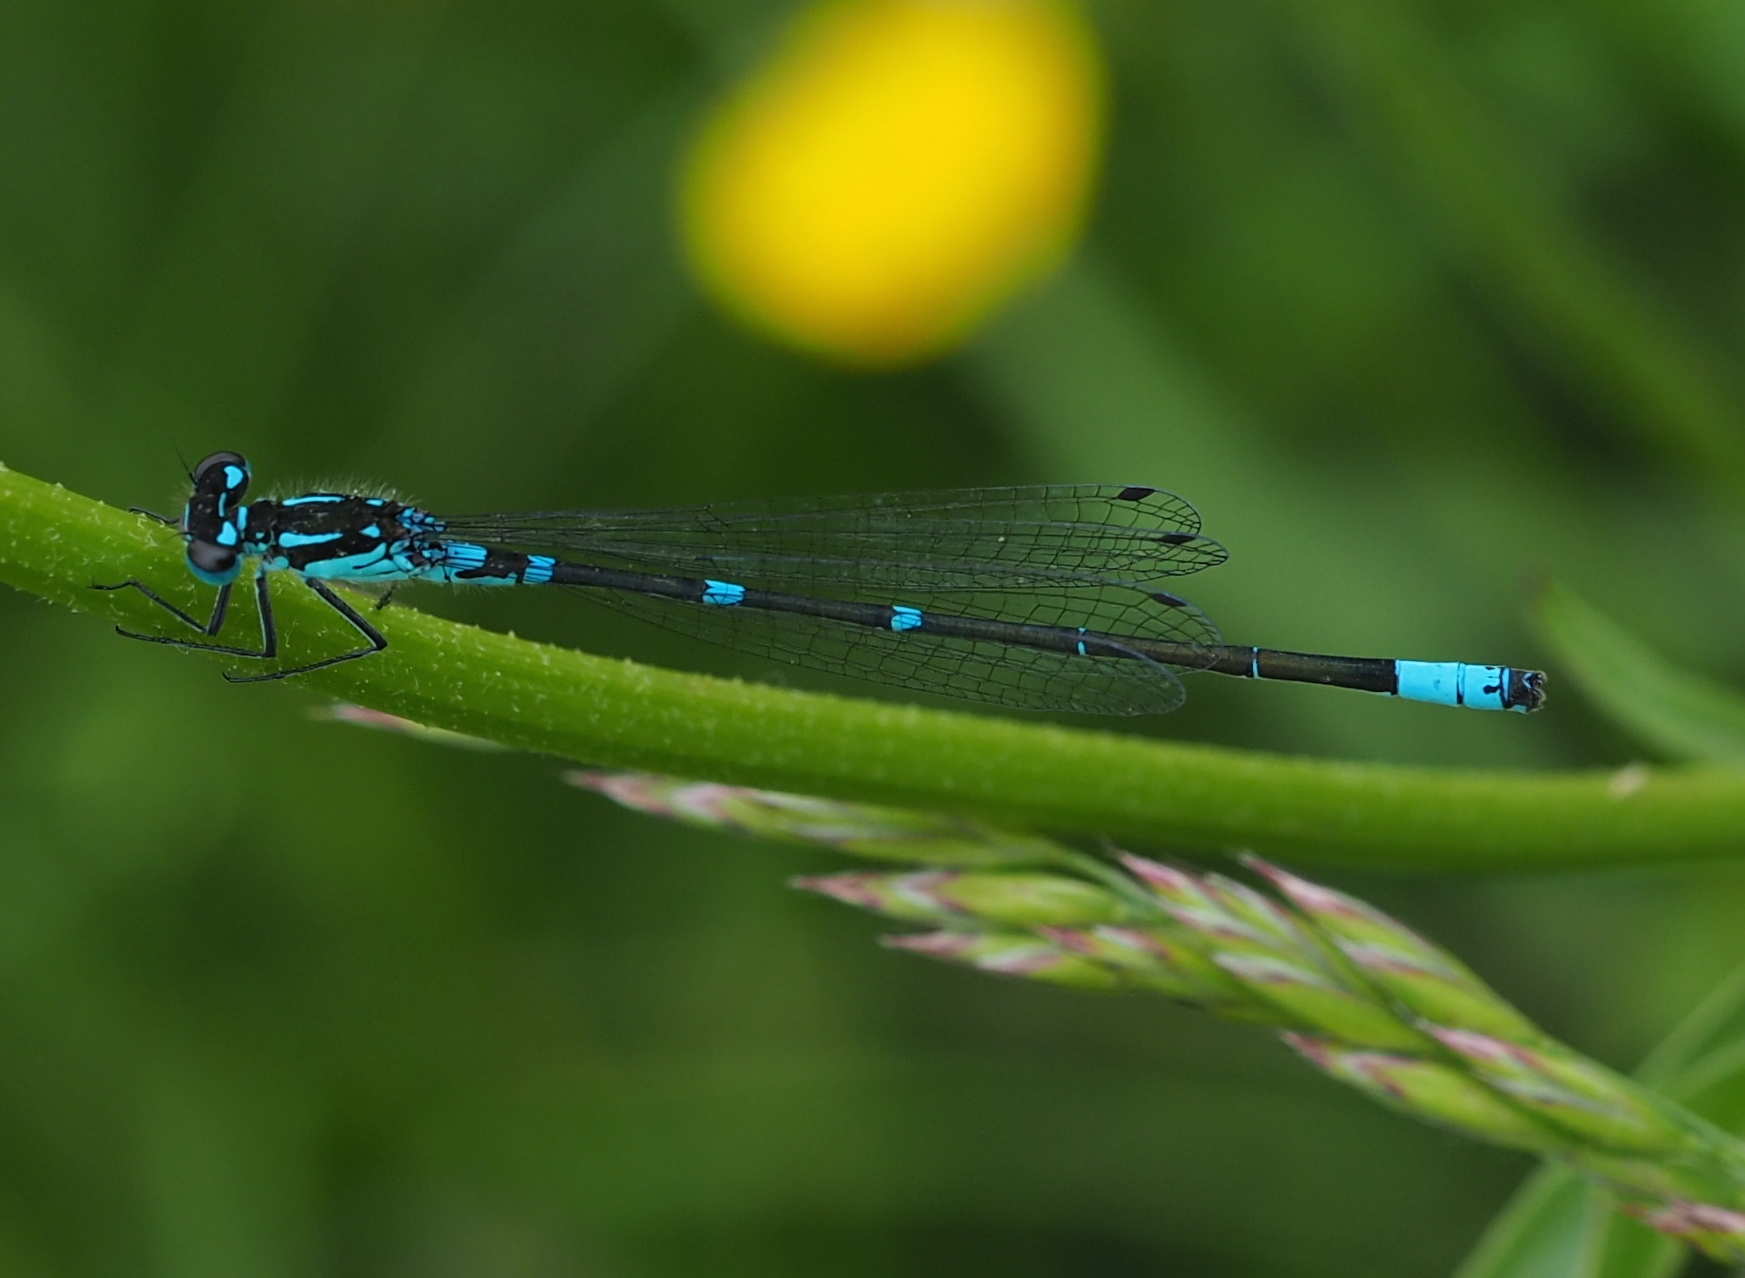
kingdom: Animalia
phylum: Arthropoda
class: Insecta
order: Odonata
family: Coenagrionidae
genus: Coenagrion
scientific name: Coenagrion pulchellum
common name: Variable bluet
